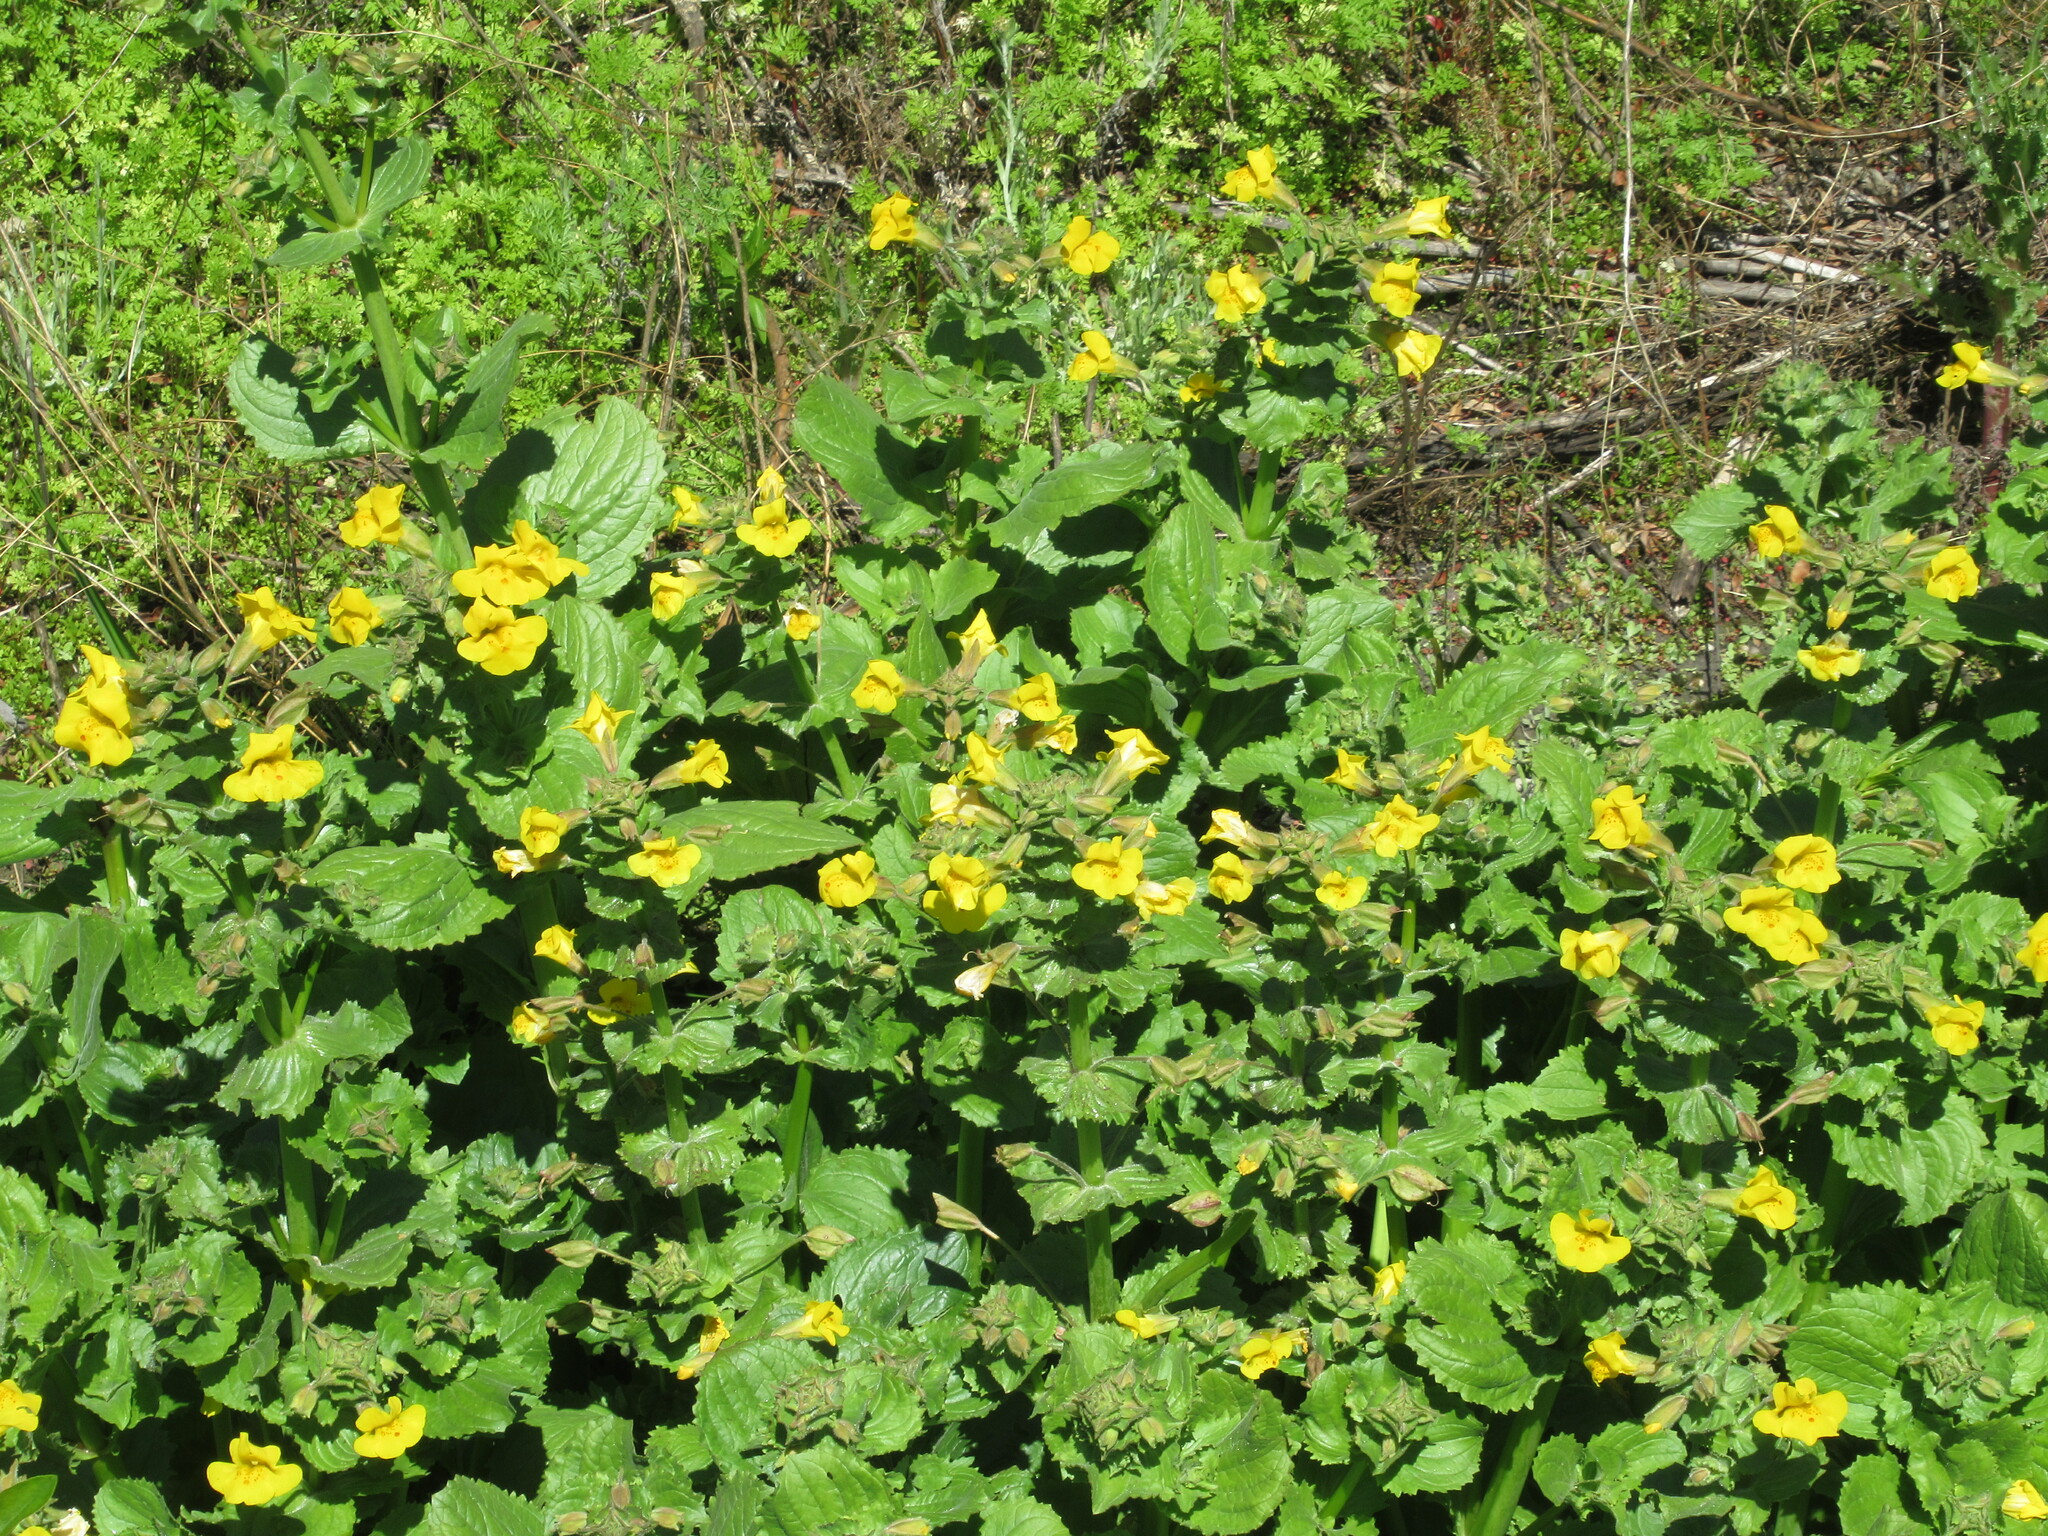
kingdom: Plantae
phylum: Tracheophyta
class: Magnoliopsida
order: Lamiales
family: Phrymaceae
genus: Erythranthe
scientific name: Erythranthe guttata
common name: Monkeyflower
